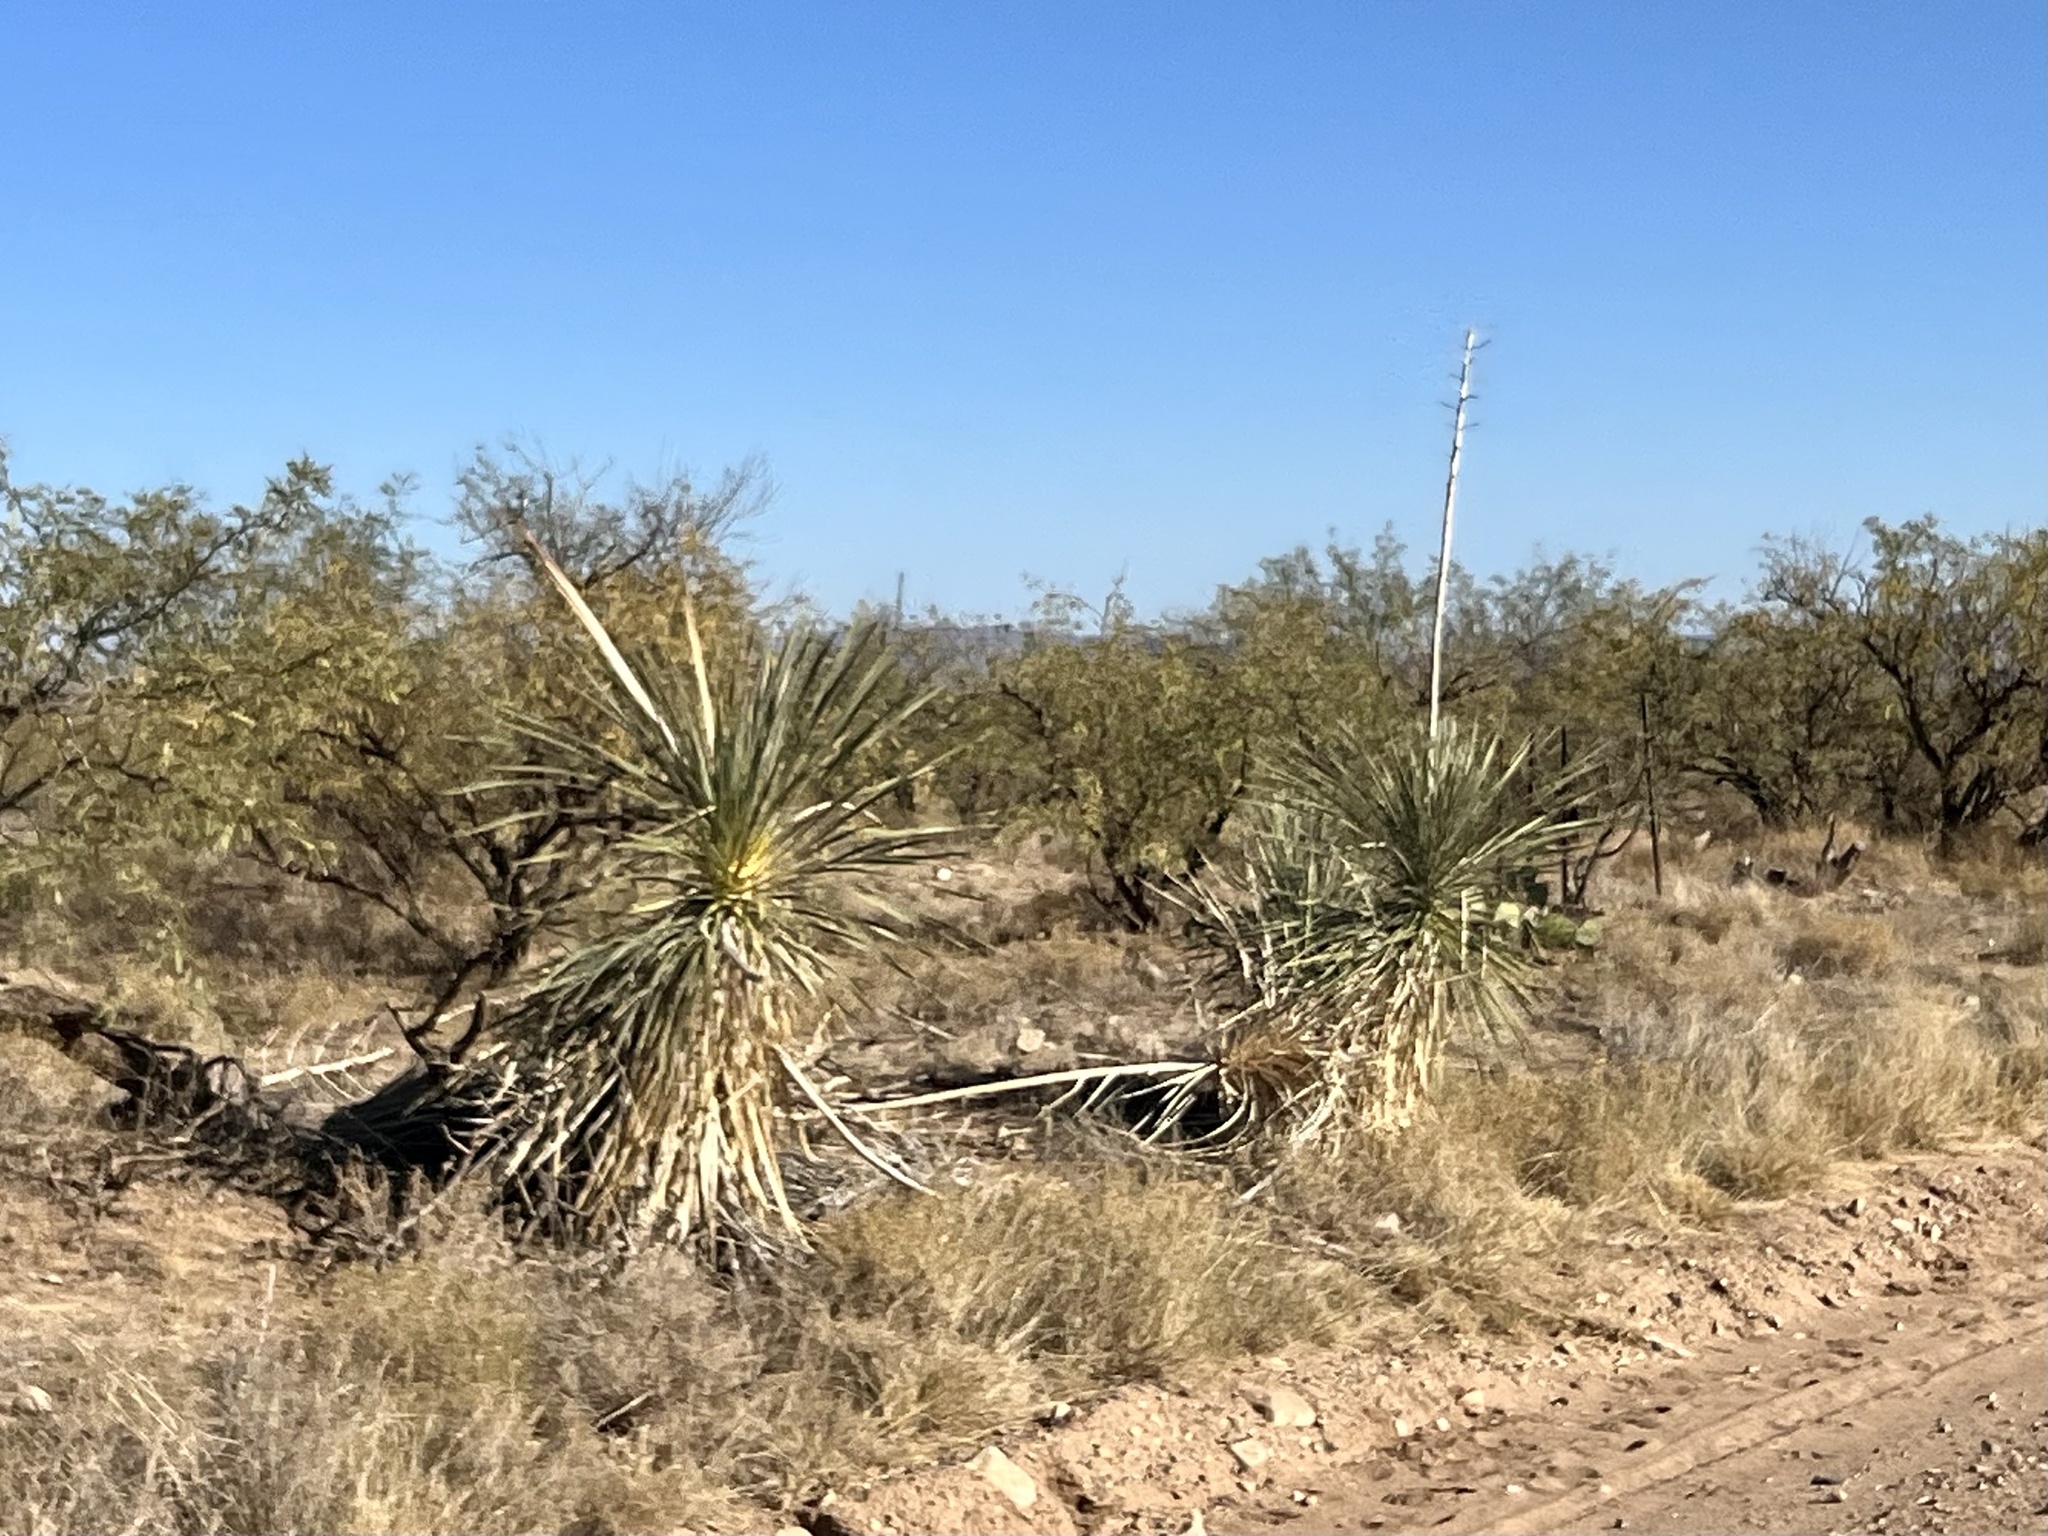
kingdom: Plantae
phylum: Tracheophyta
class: Liliopsida
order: Asparagales
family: Asparagaceae
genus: Yucca
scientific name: Yucca elata
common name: Palmella
